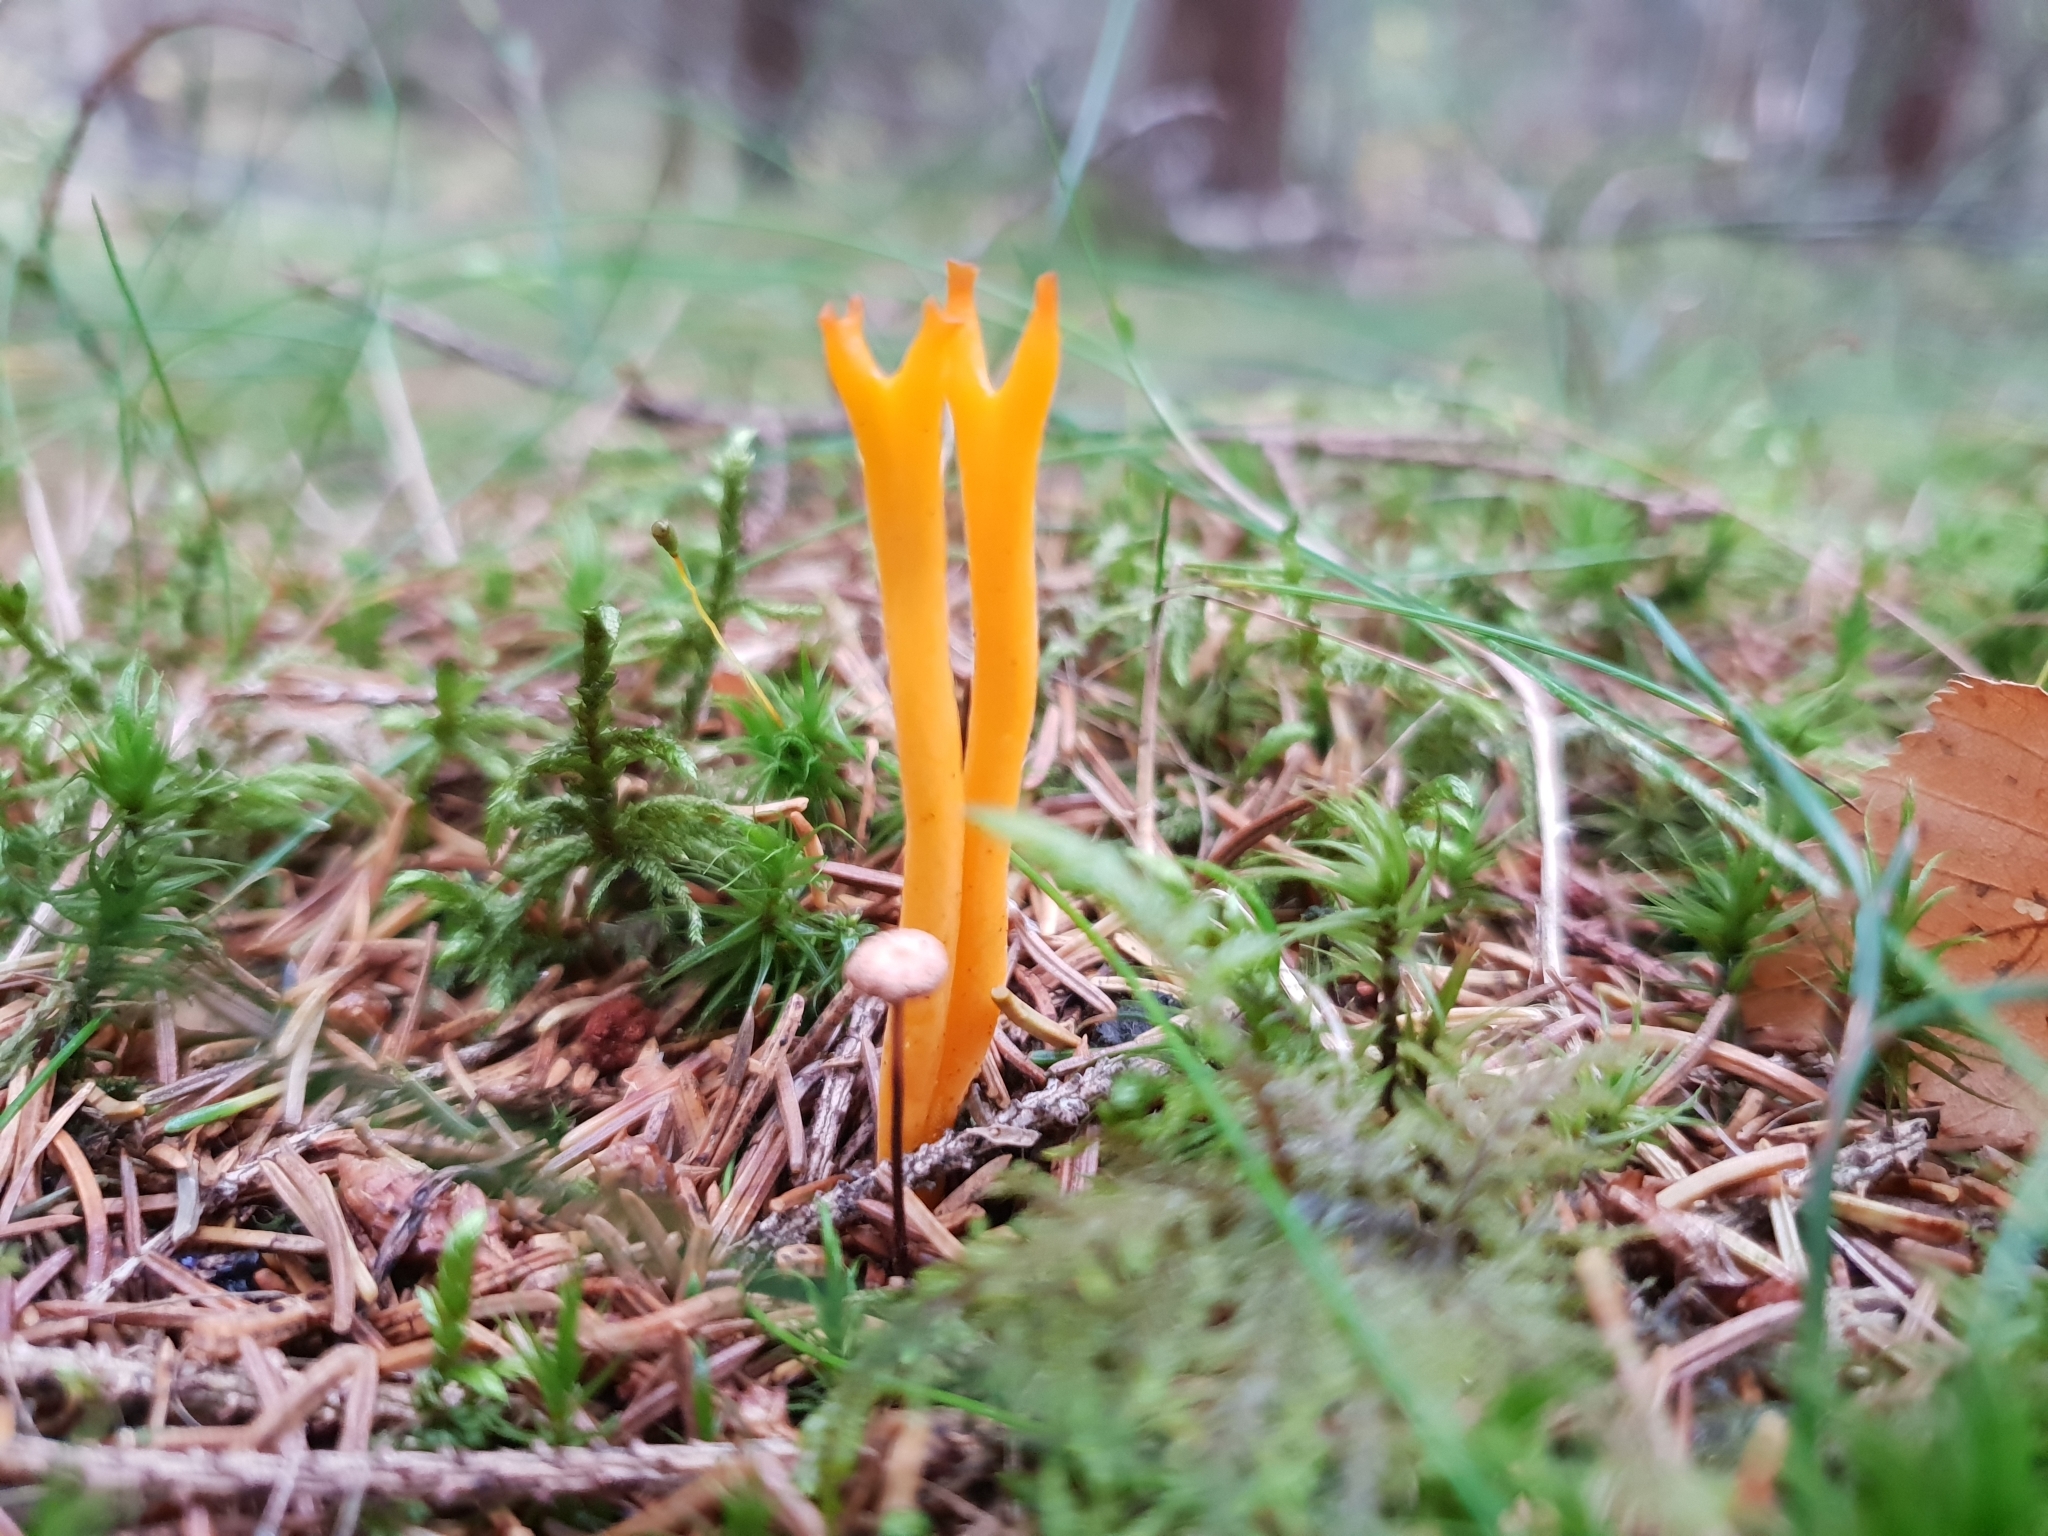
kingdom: Fungi
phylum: Basidiomycota
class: Dacrymycetes
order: Dacrymycetales
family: Dacrymycetaceae
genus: Calocera
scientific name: Calocera viscosa
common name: Yellow stagshorn
